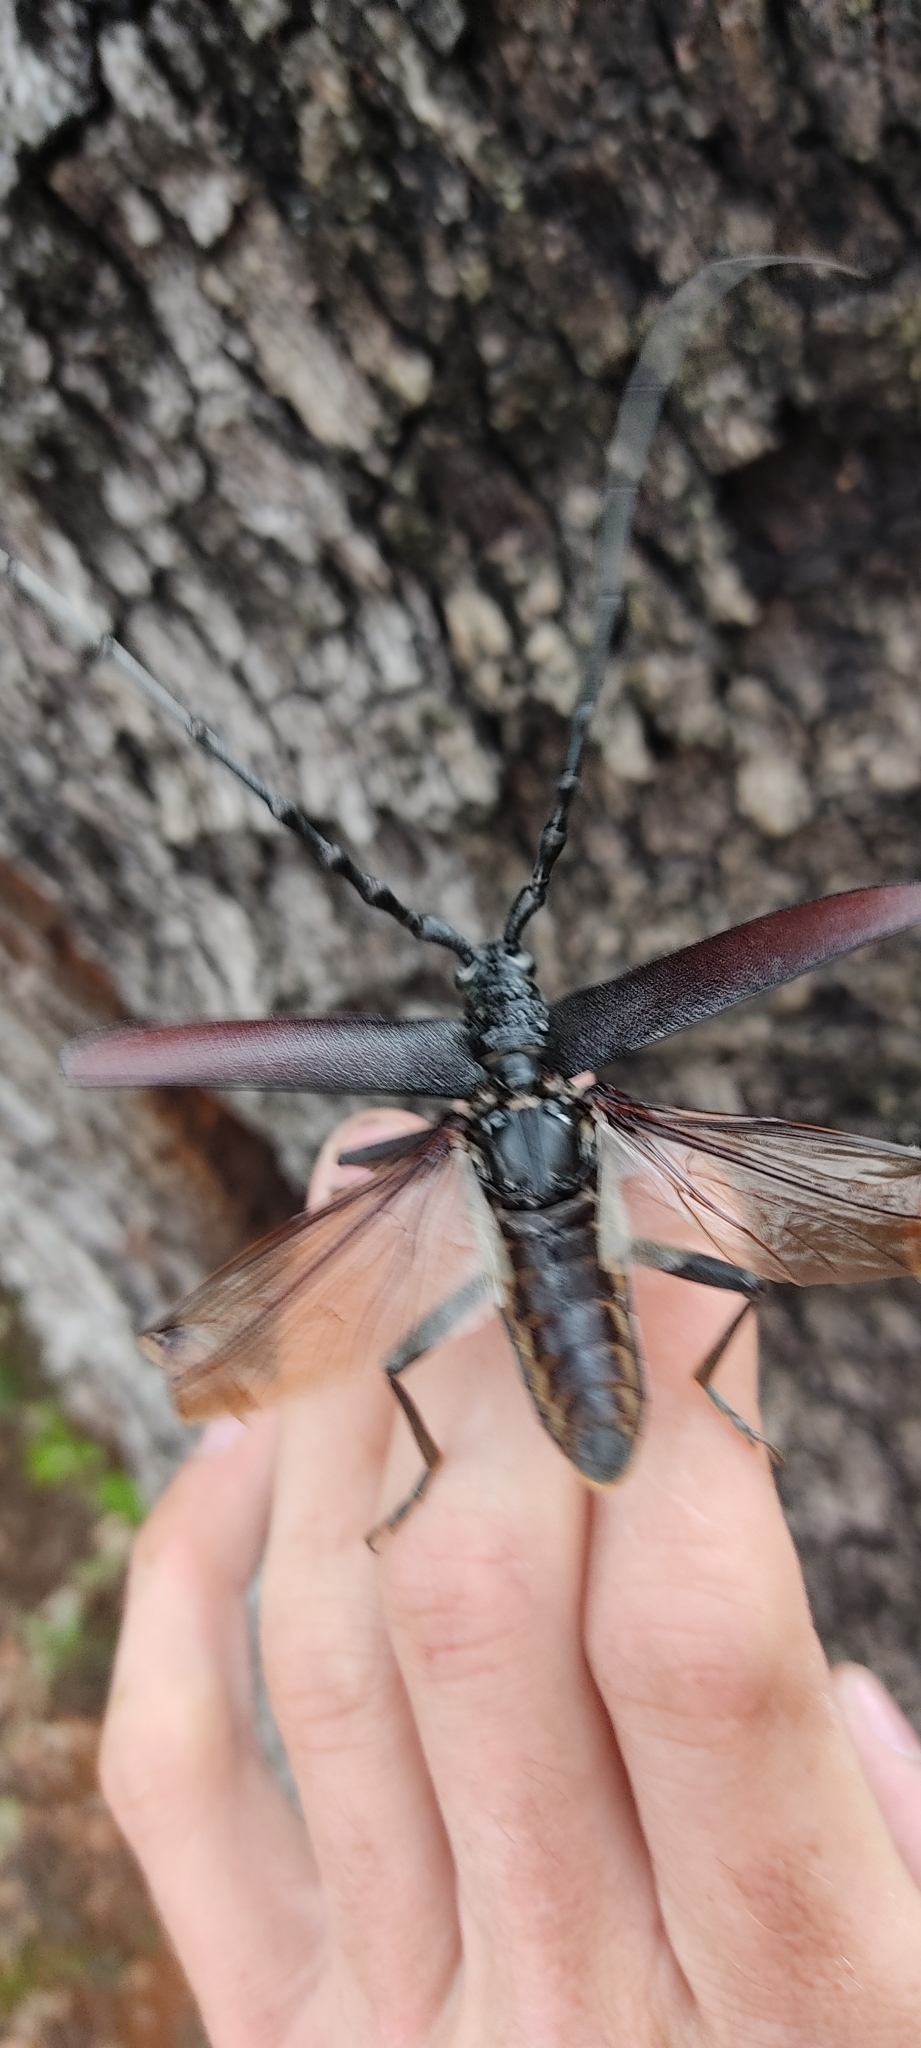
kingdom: Animalia
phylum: Arthropoda
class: Insecta
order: Coleoptera
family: Cerambycidae
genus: Cerambyx
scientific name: Cerambyx cerdo
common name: Cerambyx longicorn
